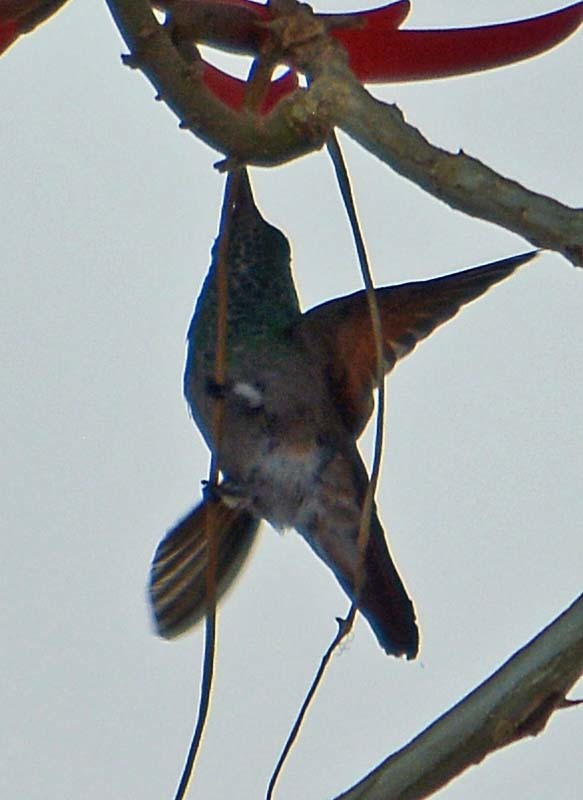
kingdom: Animalia
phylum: Chordata
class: Aves
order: Apodiformes
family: Trochilidae
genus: Saucerottia
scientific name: Saucerottia beryllina
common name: Berylline hummingbird
